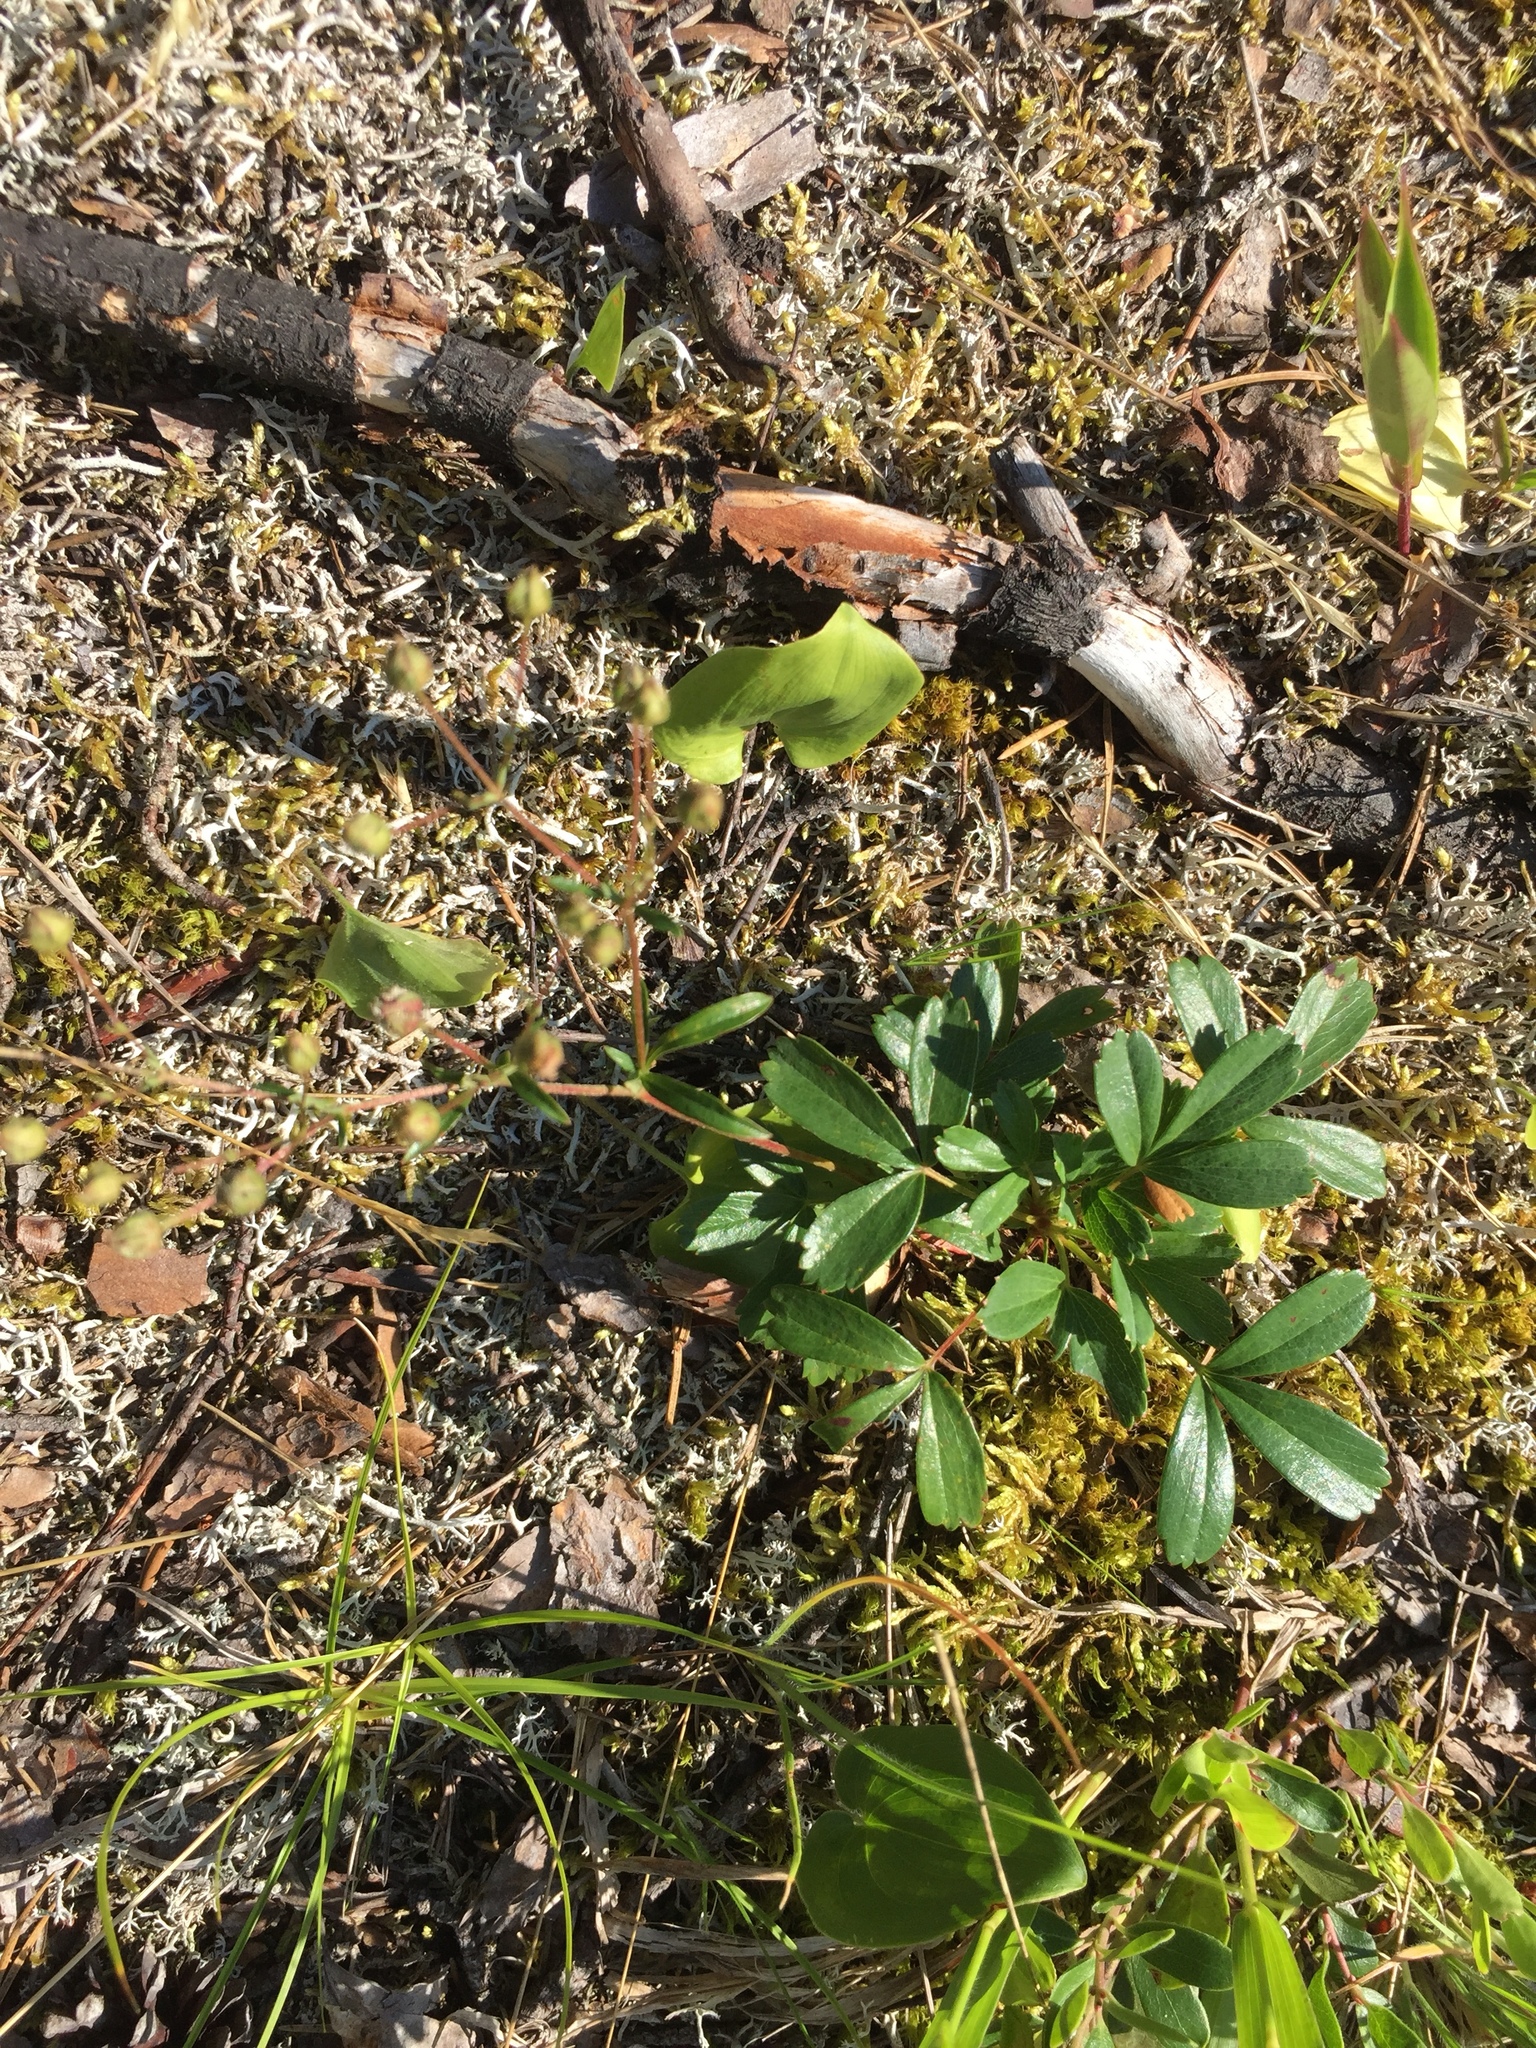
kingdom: Plantae
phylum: Tracheophyta
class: Magnoliopsida
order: Rosales
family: Rosaceae
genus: Sibbaldia
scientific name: Sibbaldia tridentata
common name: Three-toothed cinquefoil
